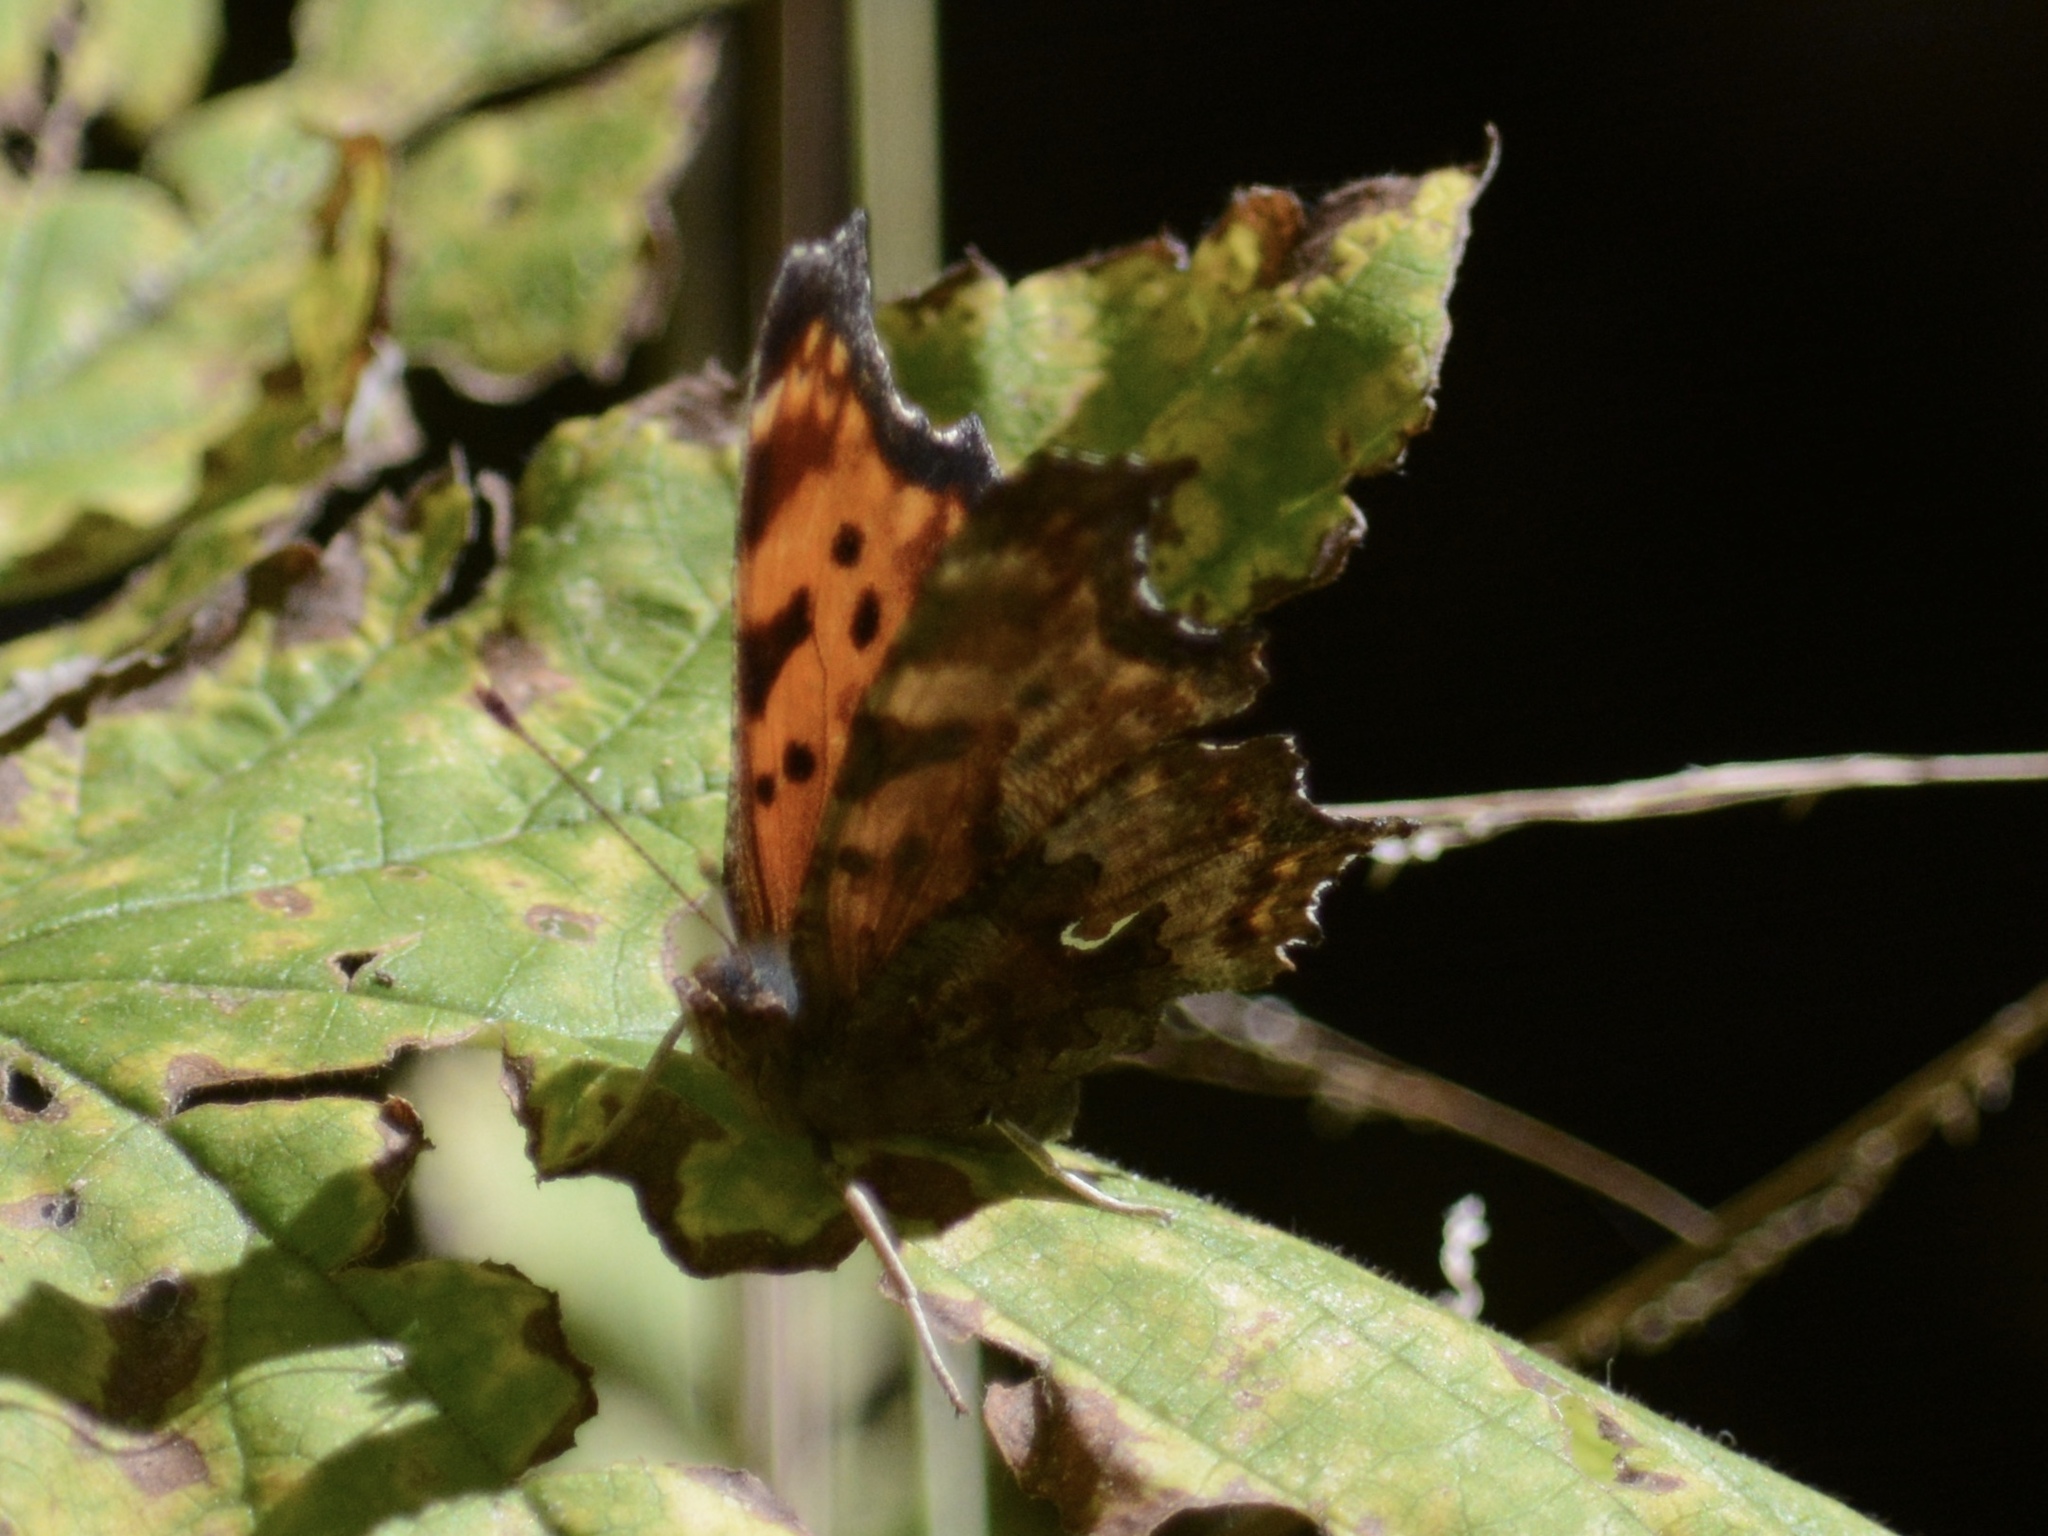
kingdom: Animalia
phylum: Arthropoda
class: Insecta
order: Lepidoptera
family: Nymphalidae
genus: Polygonia
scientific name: Polygonia comma
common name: Eastern comma
